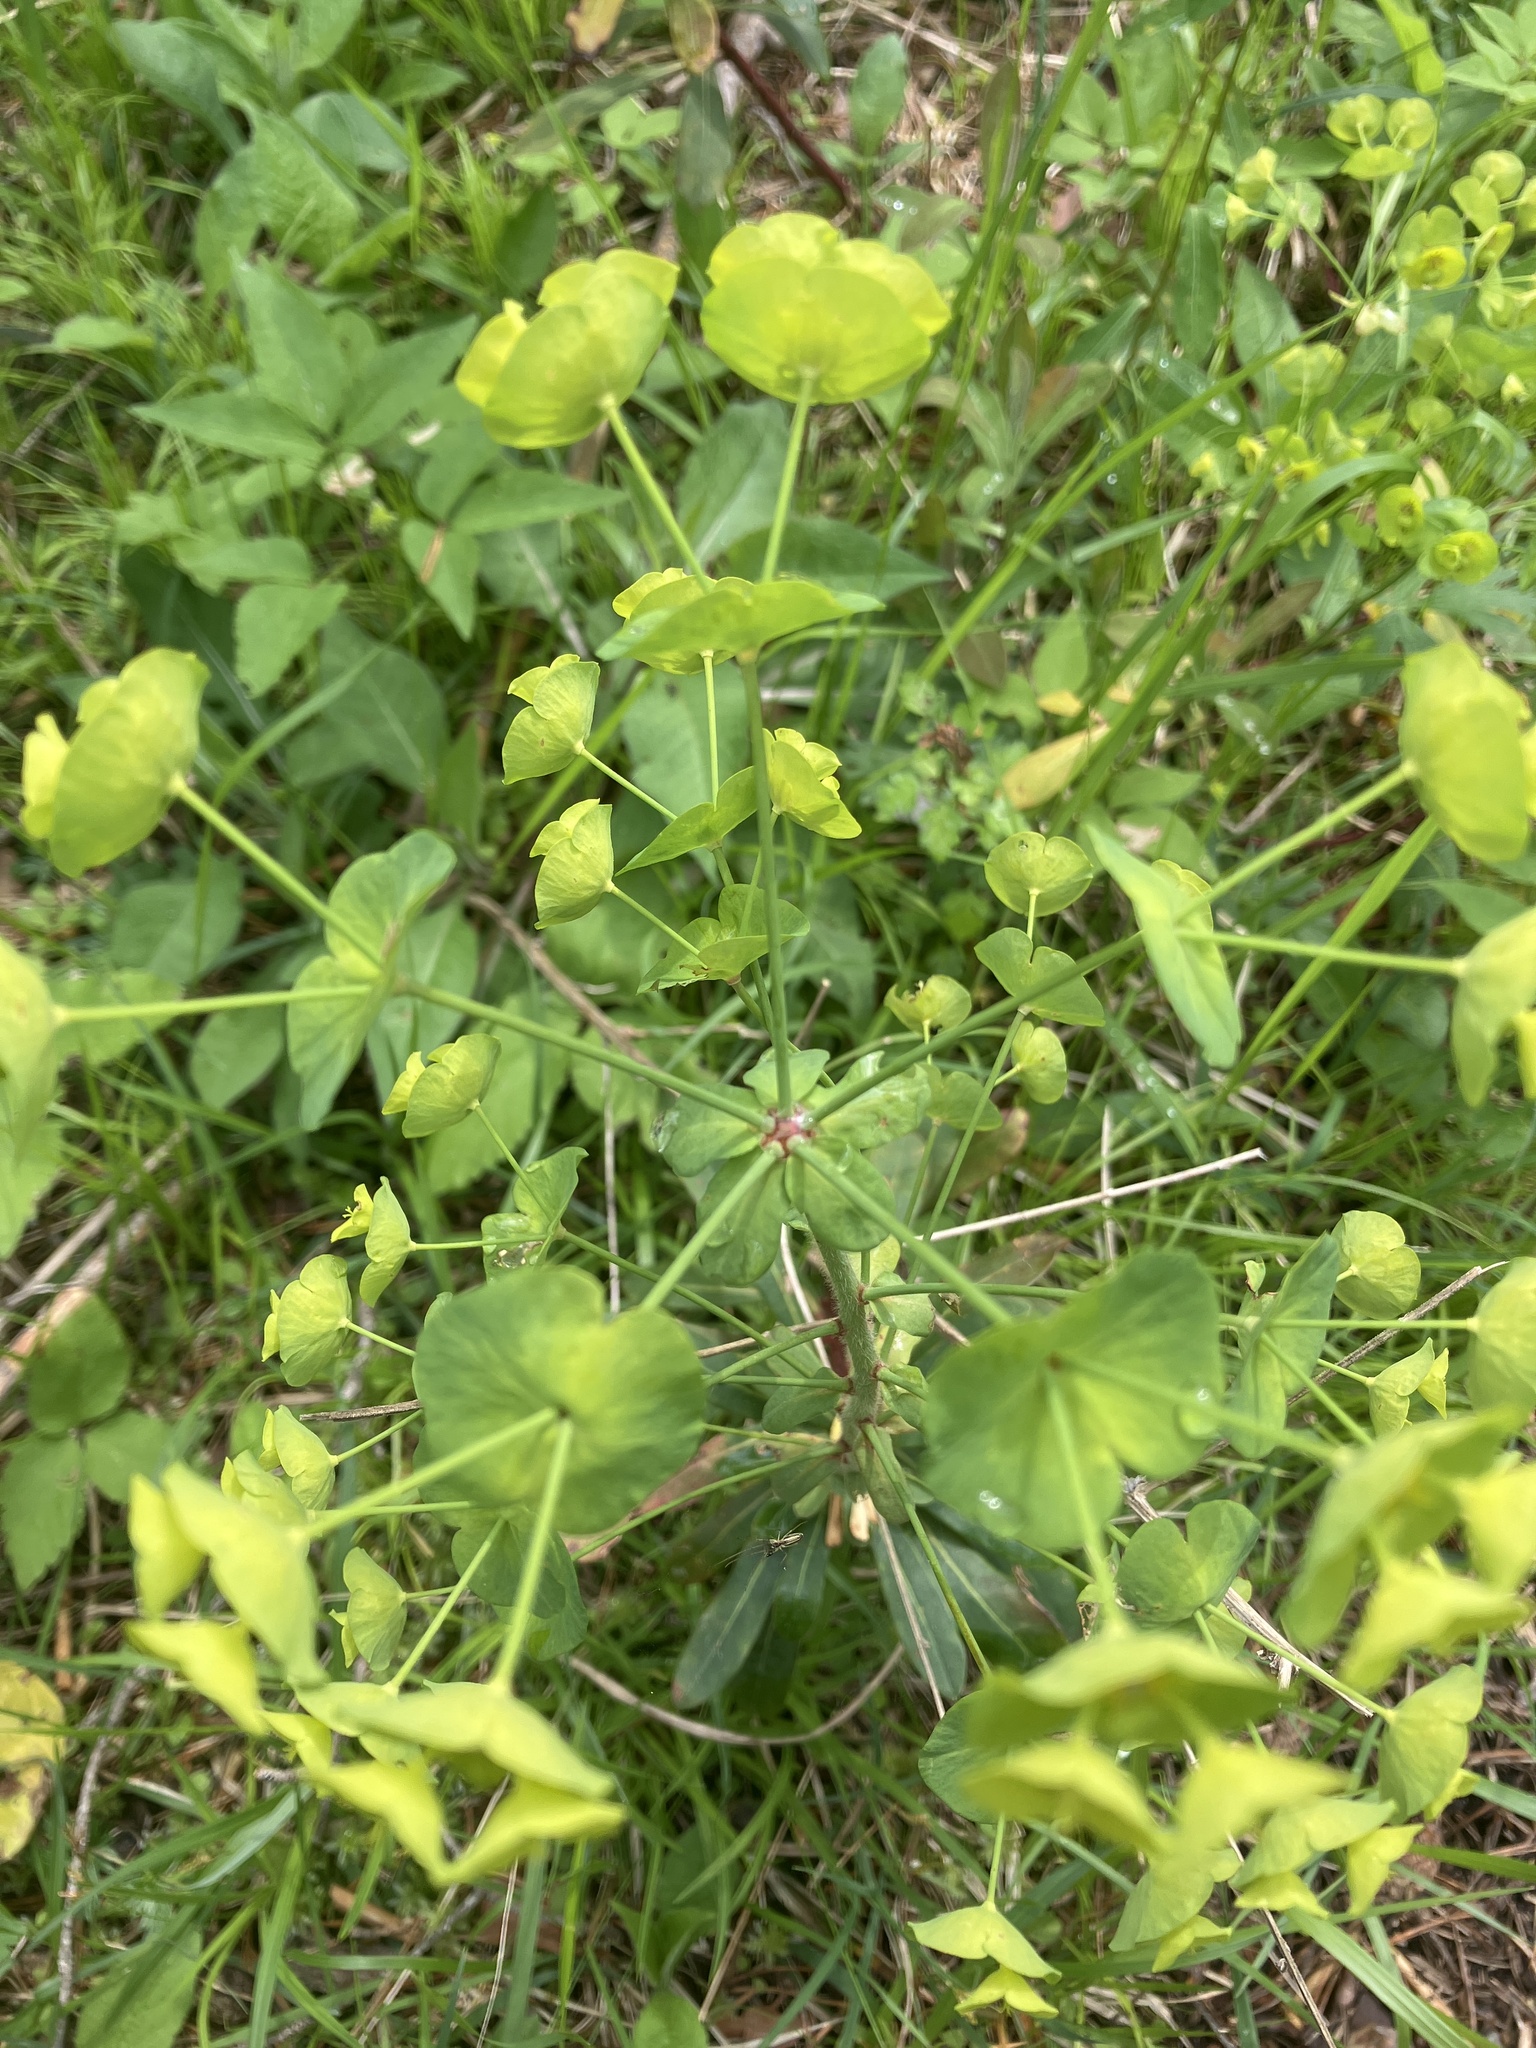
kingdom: Plantae
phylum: Tracheophyta
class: Magnoliopsida
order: Malpighiales
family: Euphorbiaceae
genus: Euphorbia
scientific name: Euphorbia amygdaloides
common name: Wood spurge
